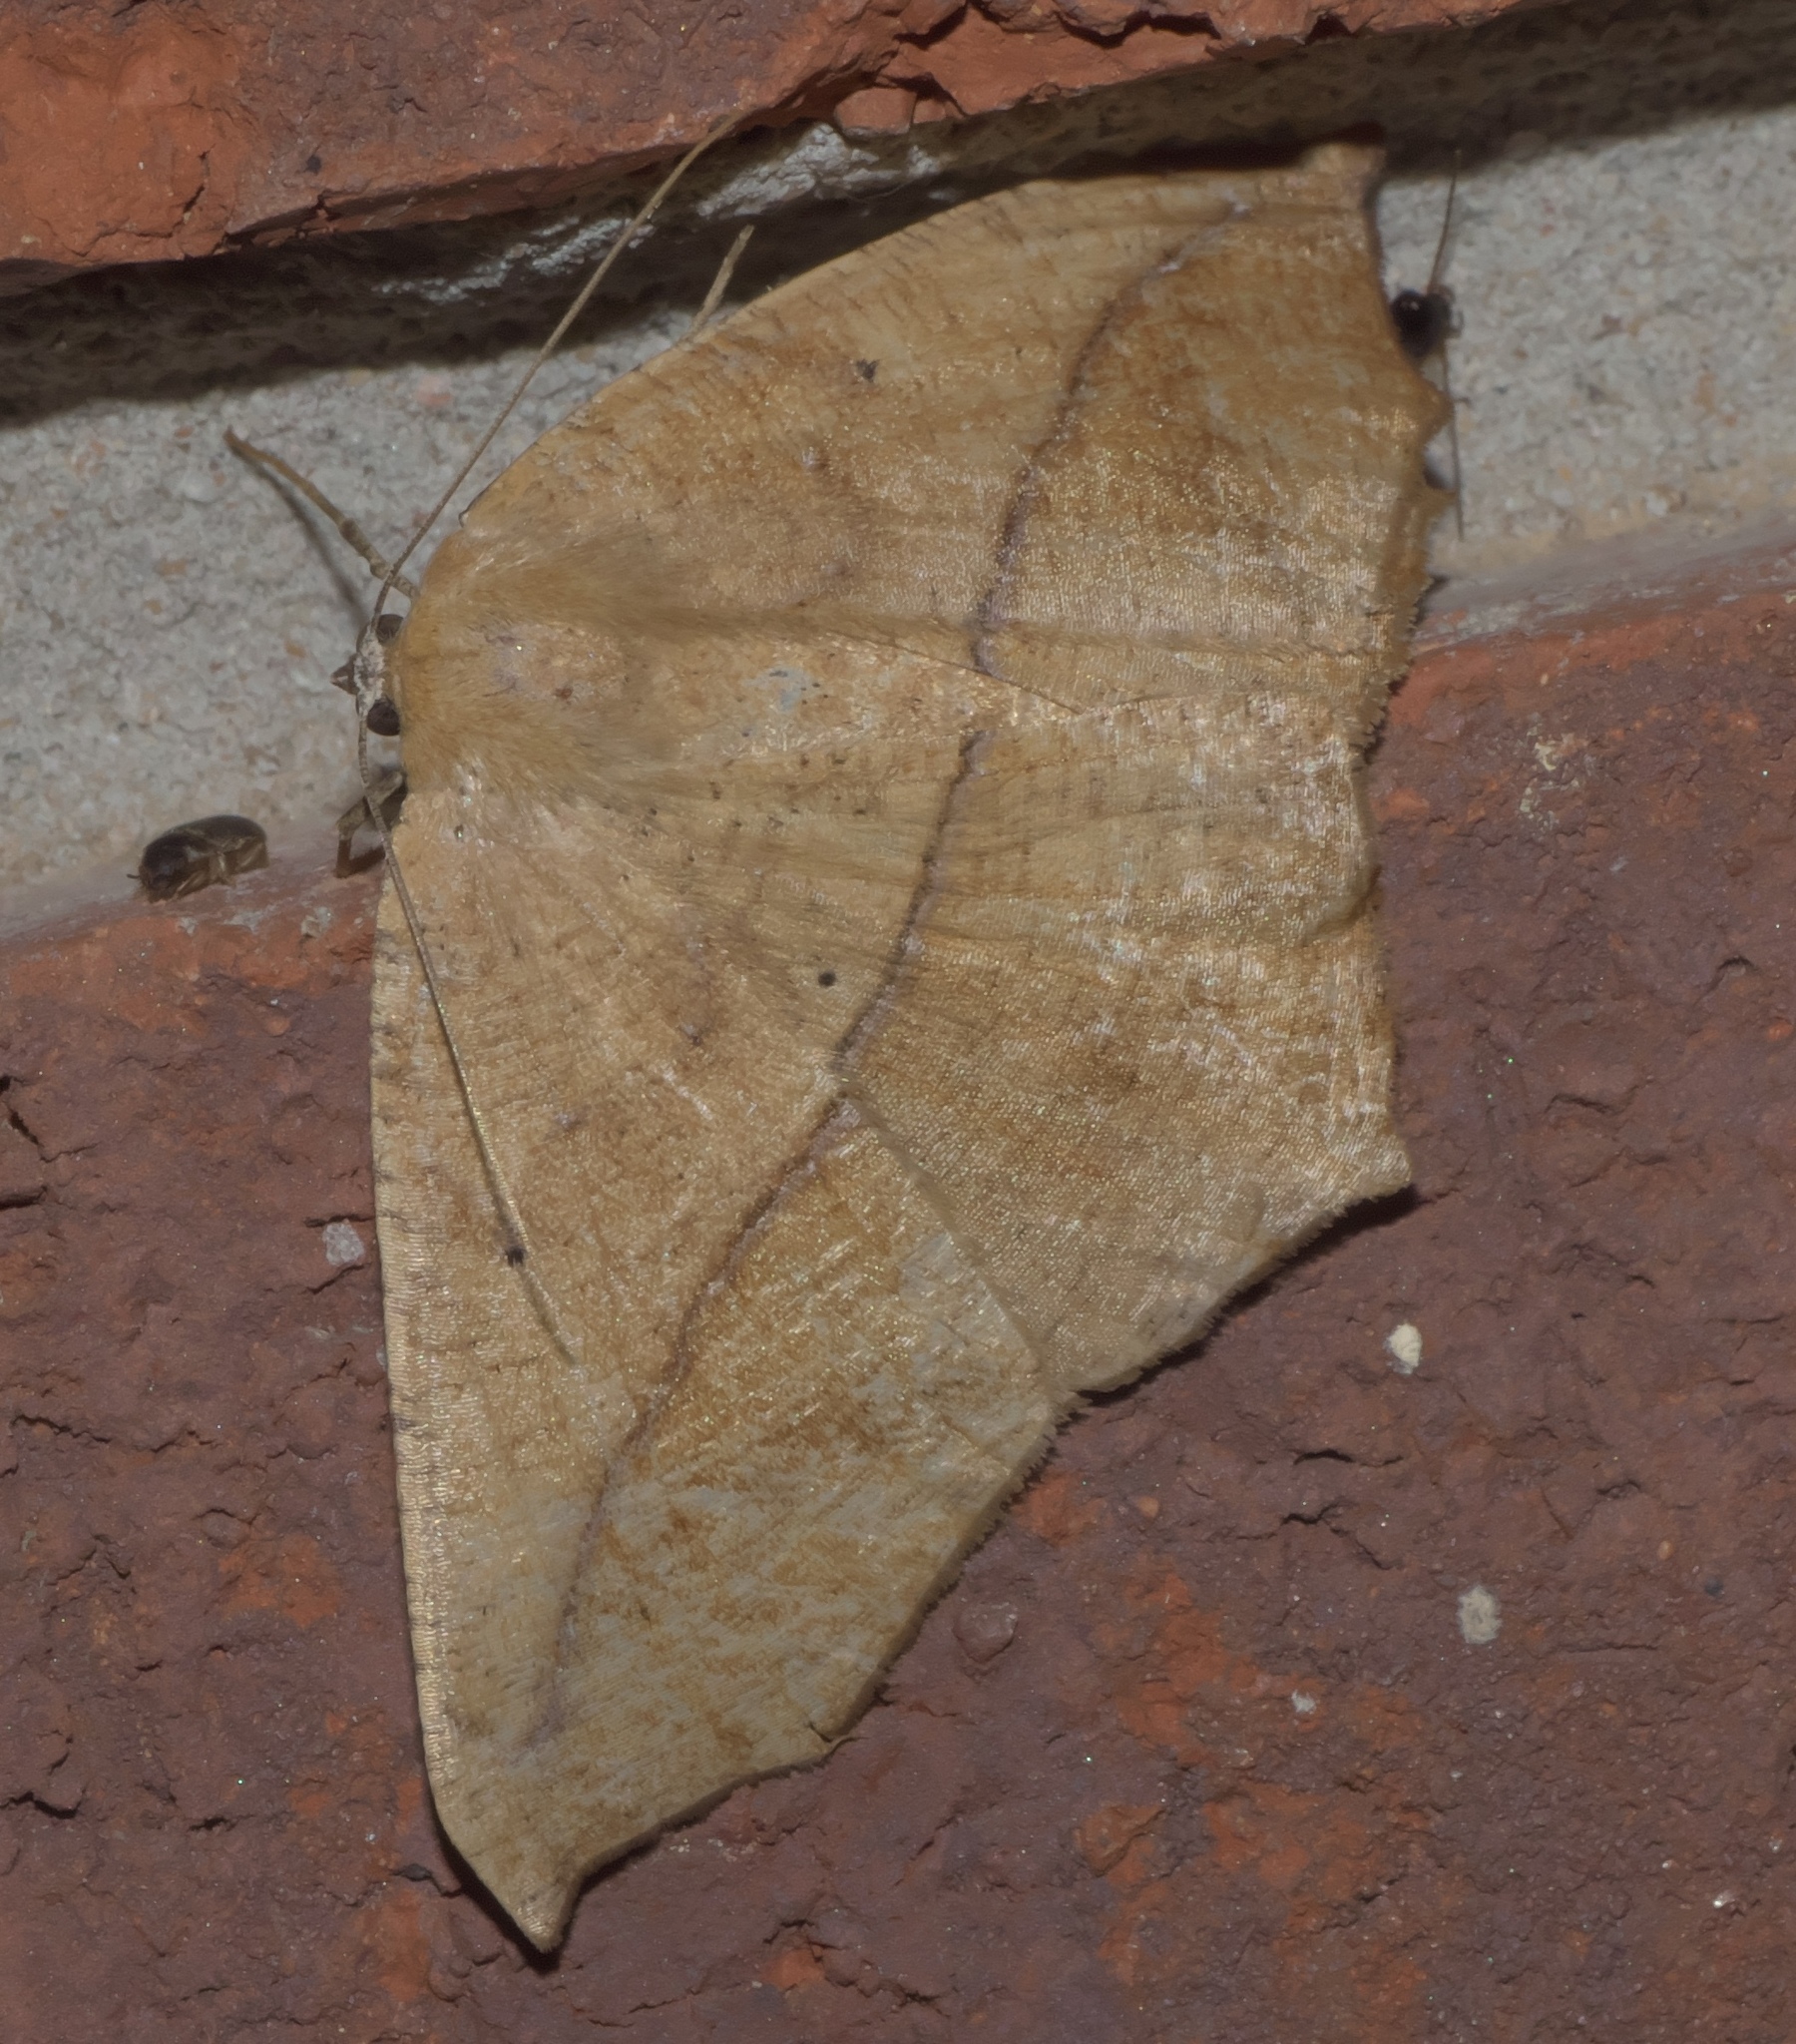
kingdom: Animalia
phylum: Arthropoda
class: Insecta
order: Lepidoptera
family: Geometridae
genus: Prochoerodes
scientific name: Prochoerodes lineola
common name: Large maple spanworm
